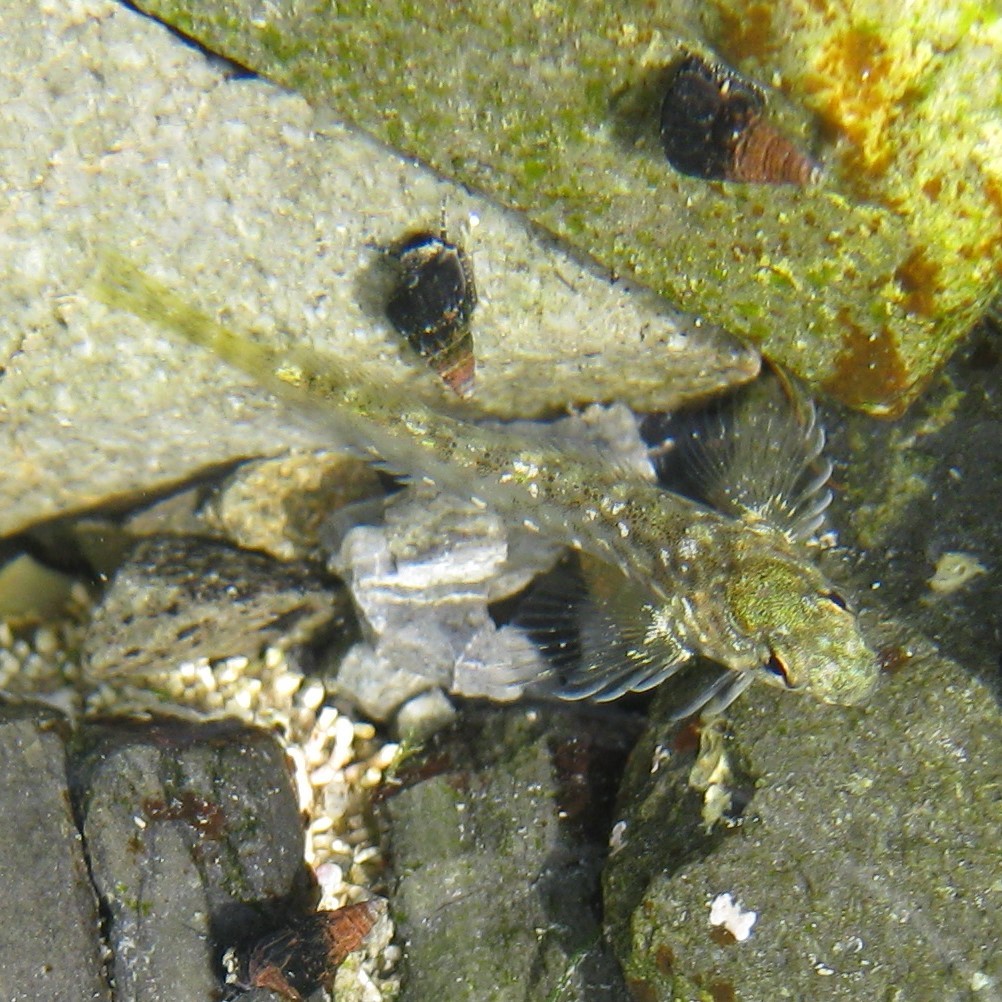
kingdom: Animalia
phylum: Chordata
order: Perciformes
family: Tripterygiidae
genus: Bellapiscis
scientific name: Bellapiscis medius
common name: Twister
